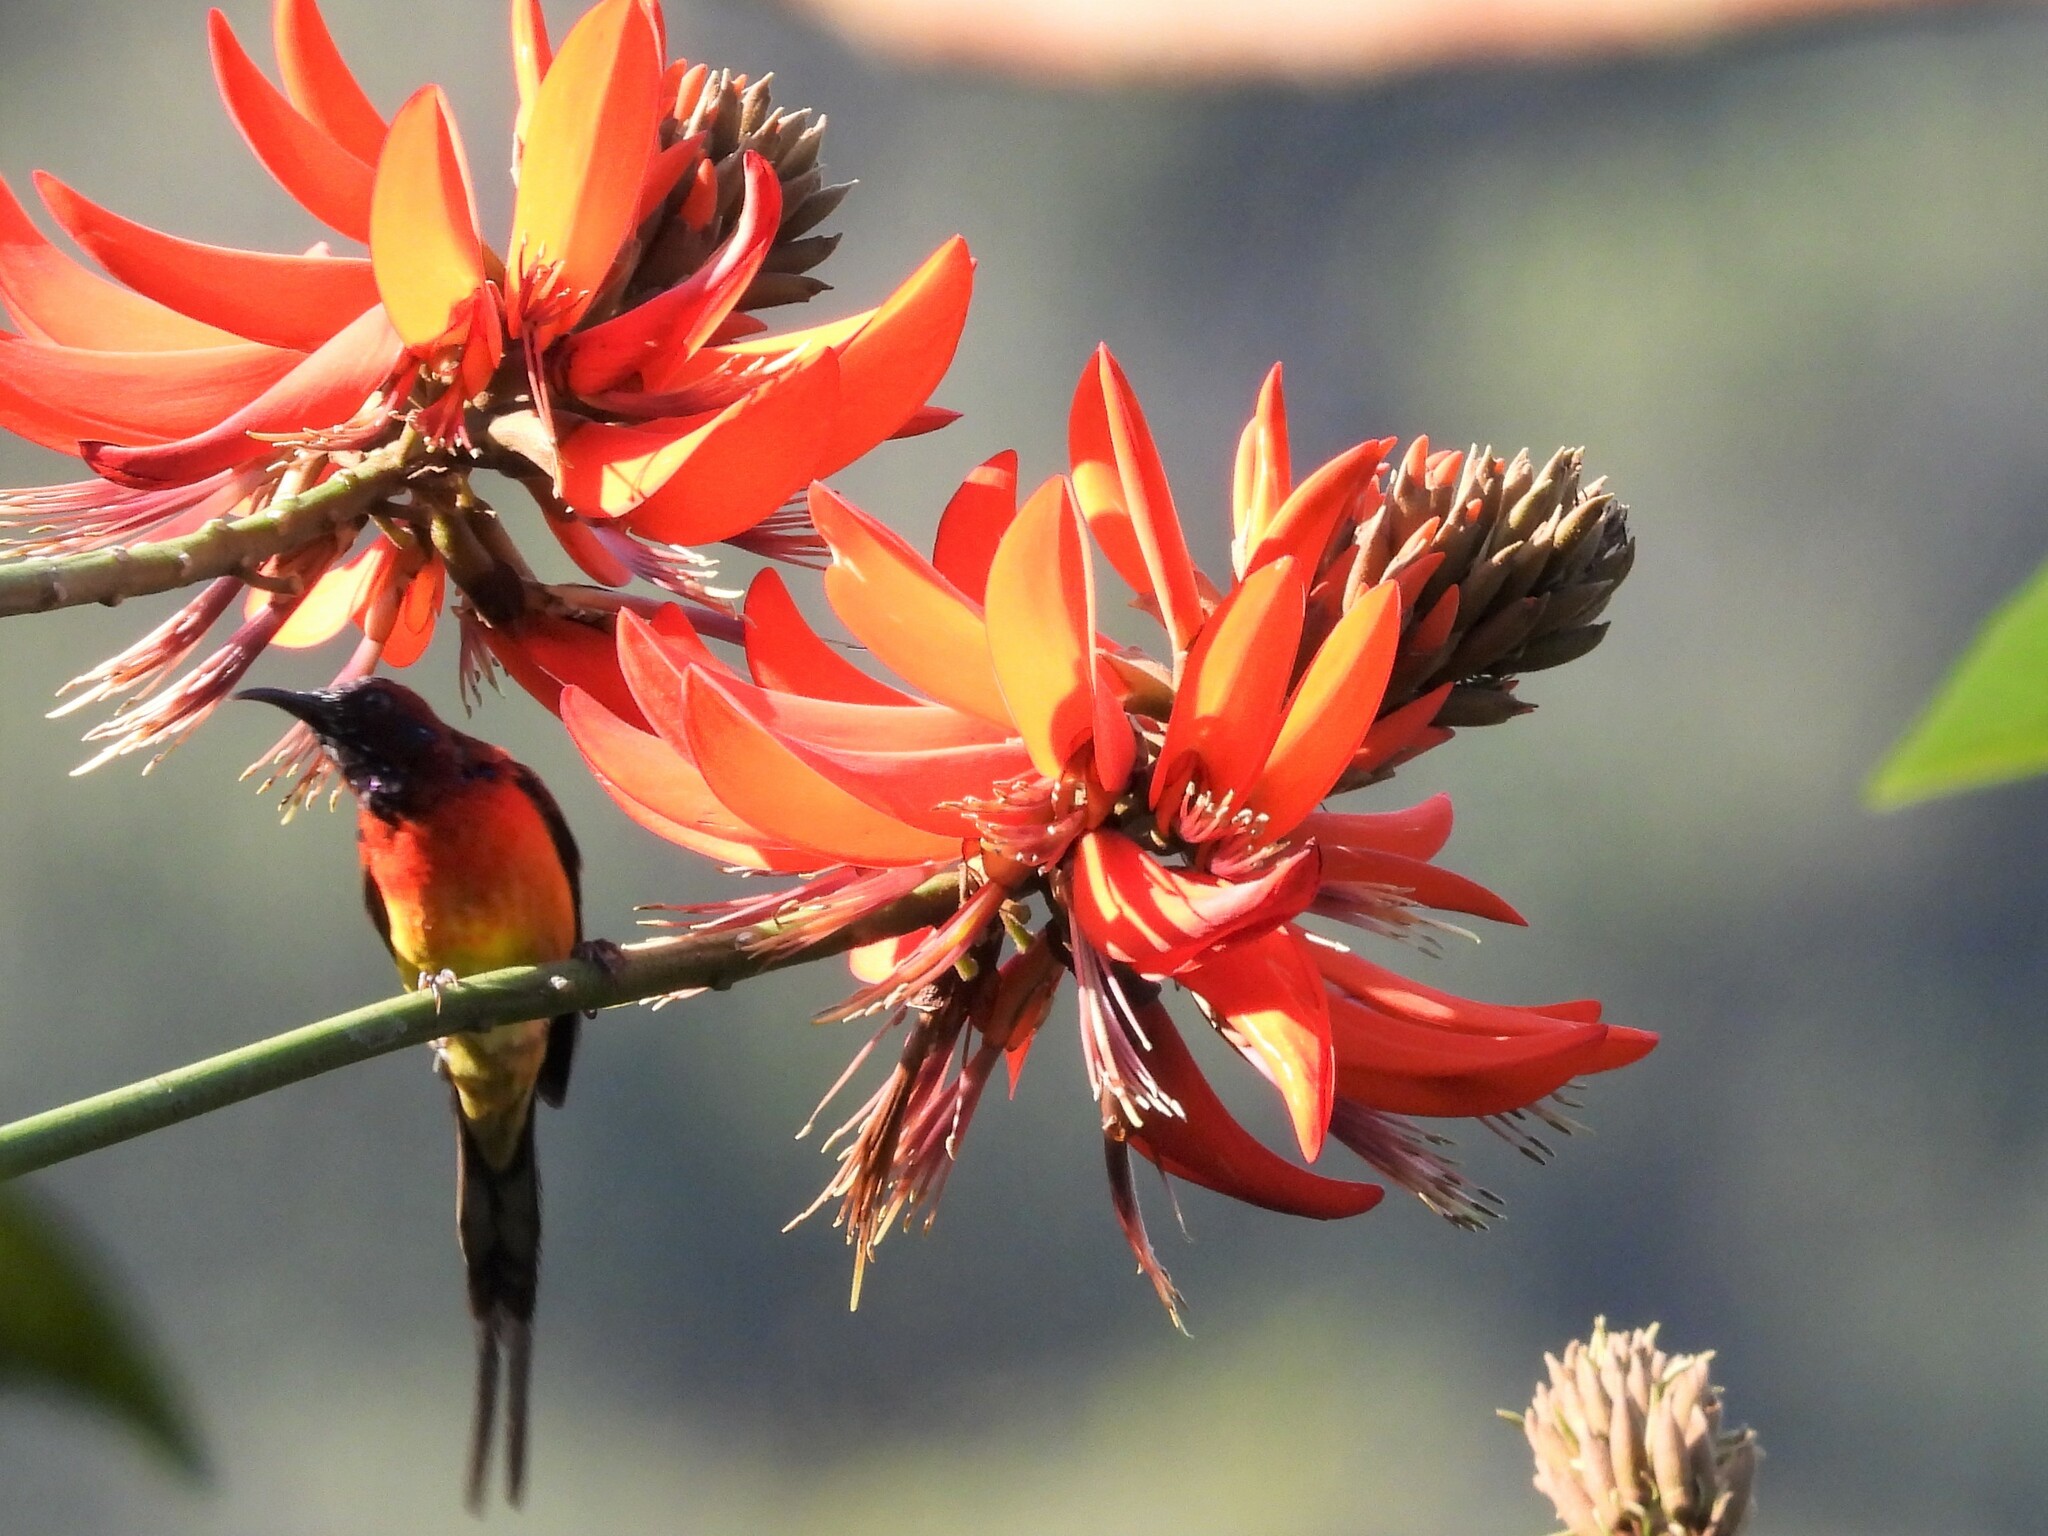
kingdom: Animalia
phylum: Chordata
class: Aves
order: Passeriformes
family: Nectariniidae
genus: Aethopyga
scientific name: Aethopyga gouldiae
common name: Mrs. gould's sunbird
